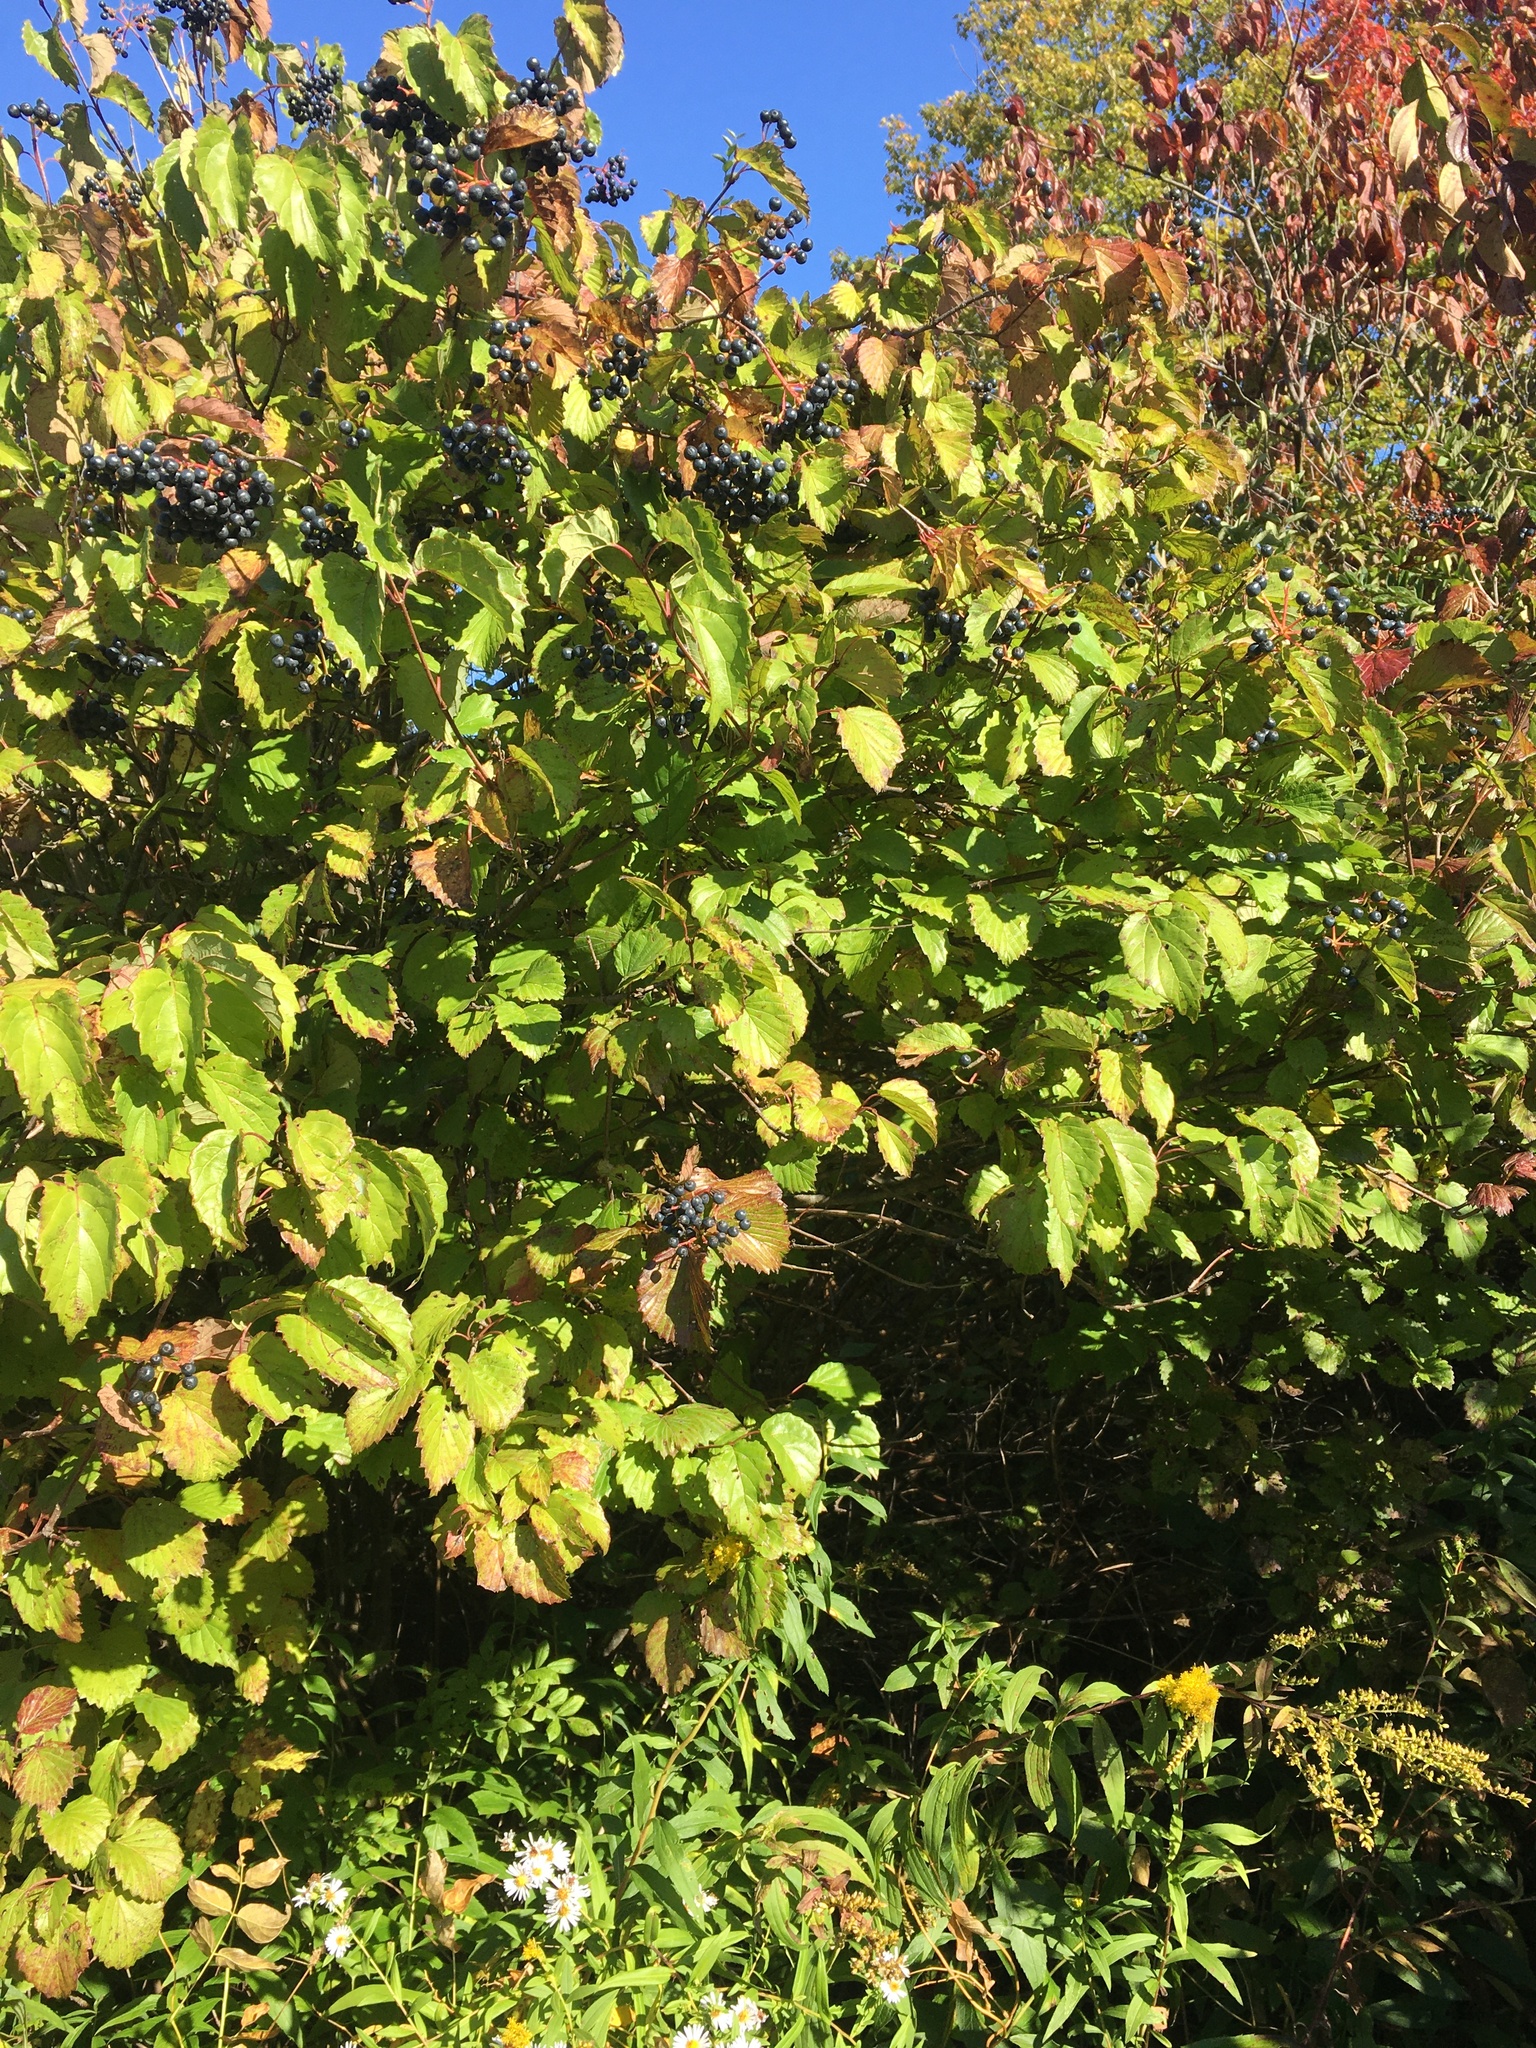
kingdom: Plantae
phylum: Tracheophyta
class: Magnoliopsida
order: Dipsacales
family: Viburnaceae
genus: Viburnum
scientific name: Viburnum recognitum
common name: Northern arrow-wood
